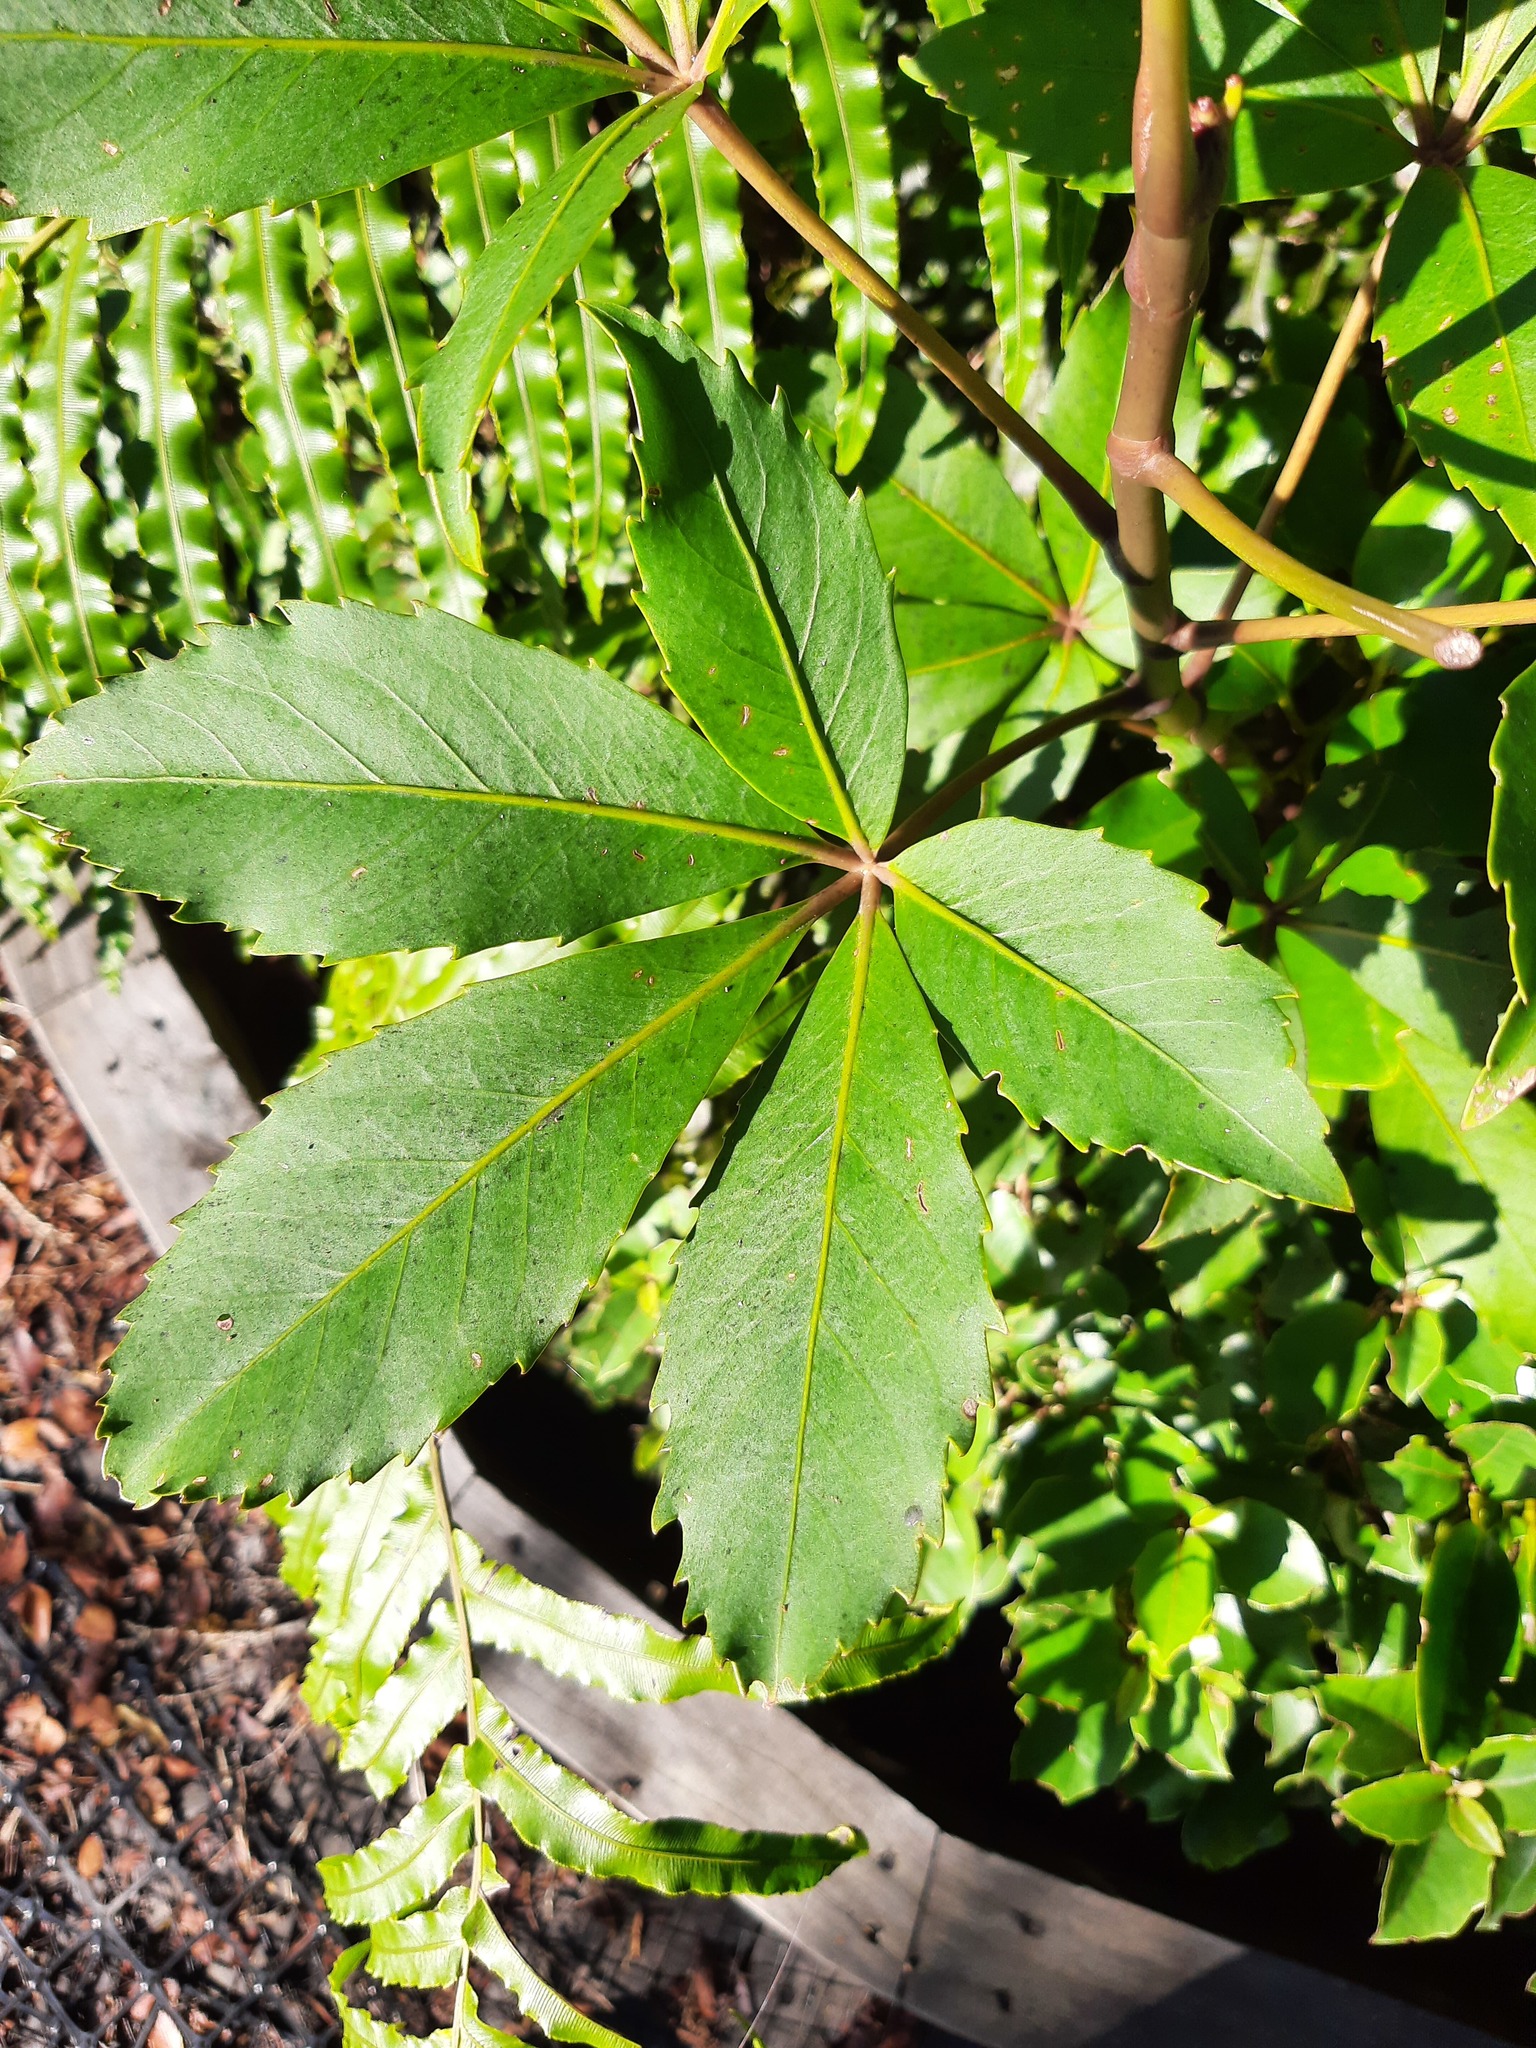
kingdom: Plantae
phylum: Tracheophyta
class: Magnoliopsida
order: Apiales
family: Araliaceae
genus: Neopanax
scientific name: Neopanax colensoi
